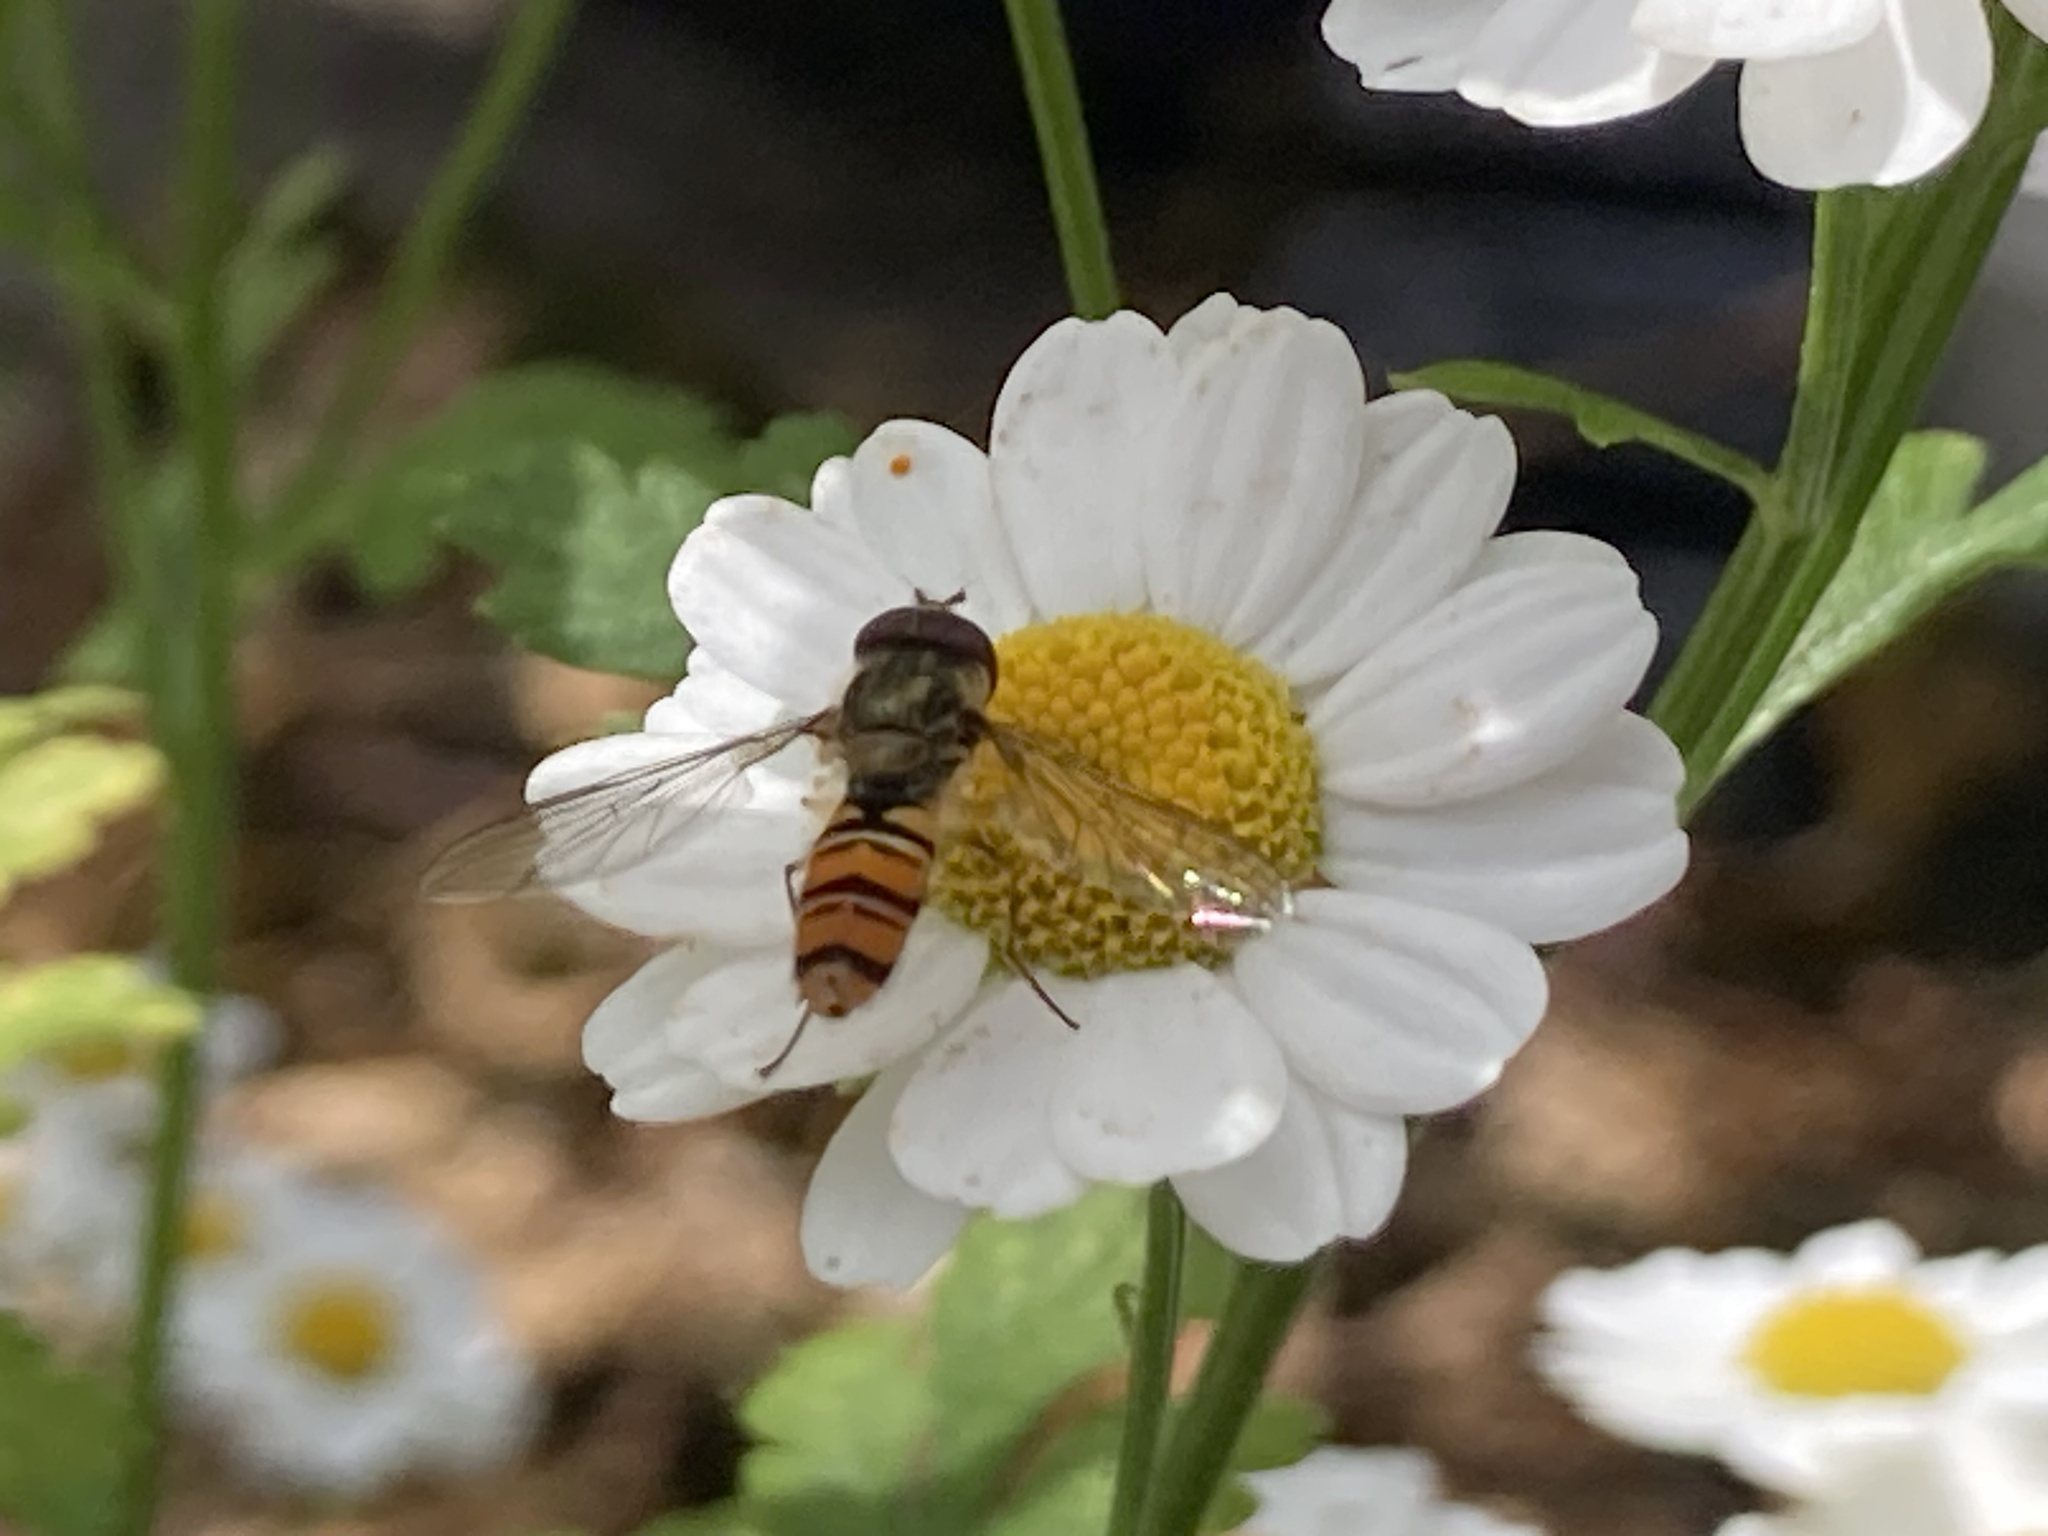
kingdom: Animalia
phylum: Arthropoda
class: Insecta
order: Diptera
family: Syrphidae
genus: Episyrphus
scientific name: Episyrphus balteatus
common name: Marmalade hoverfly
